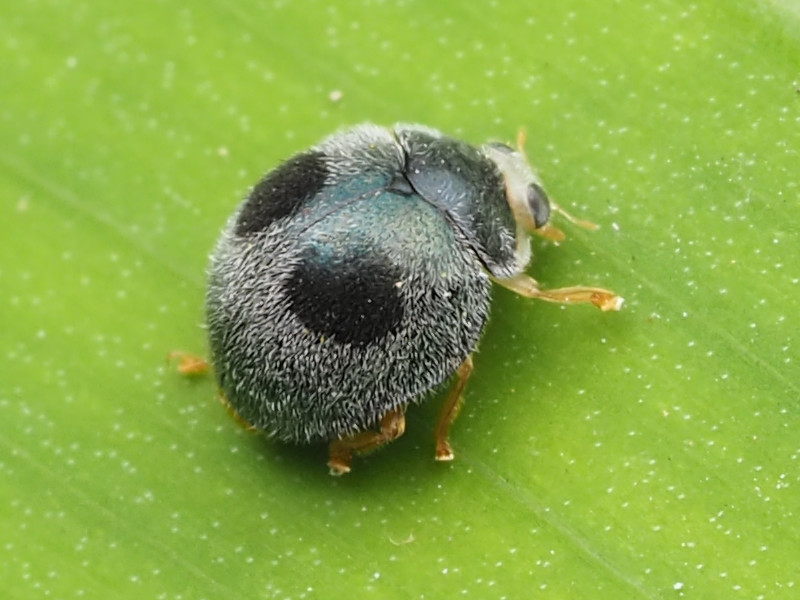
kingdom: Animalia
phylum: Arthropoda
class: Insecta
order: Coleoptera
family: Coccinellidae
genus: Azya
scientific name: Azya orbigera
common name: Ladybird beetle
